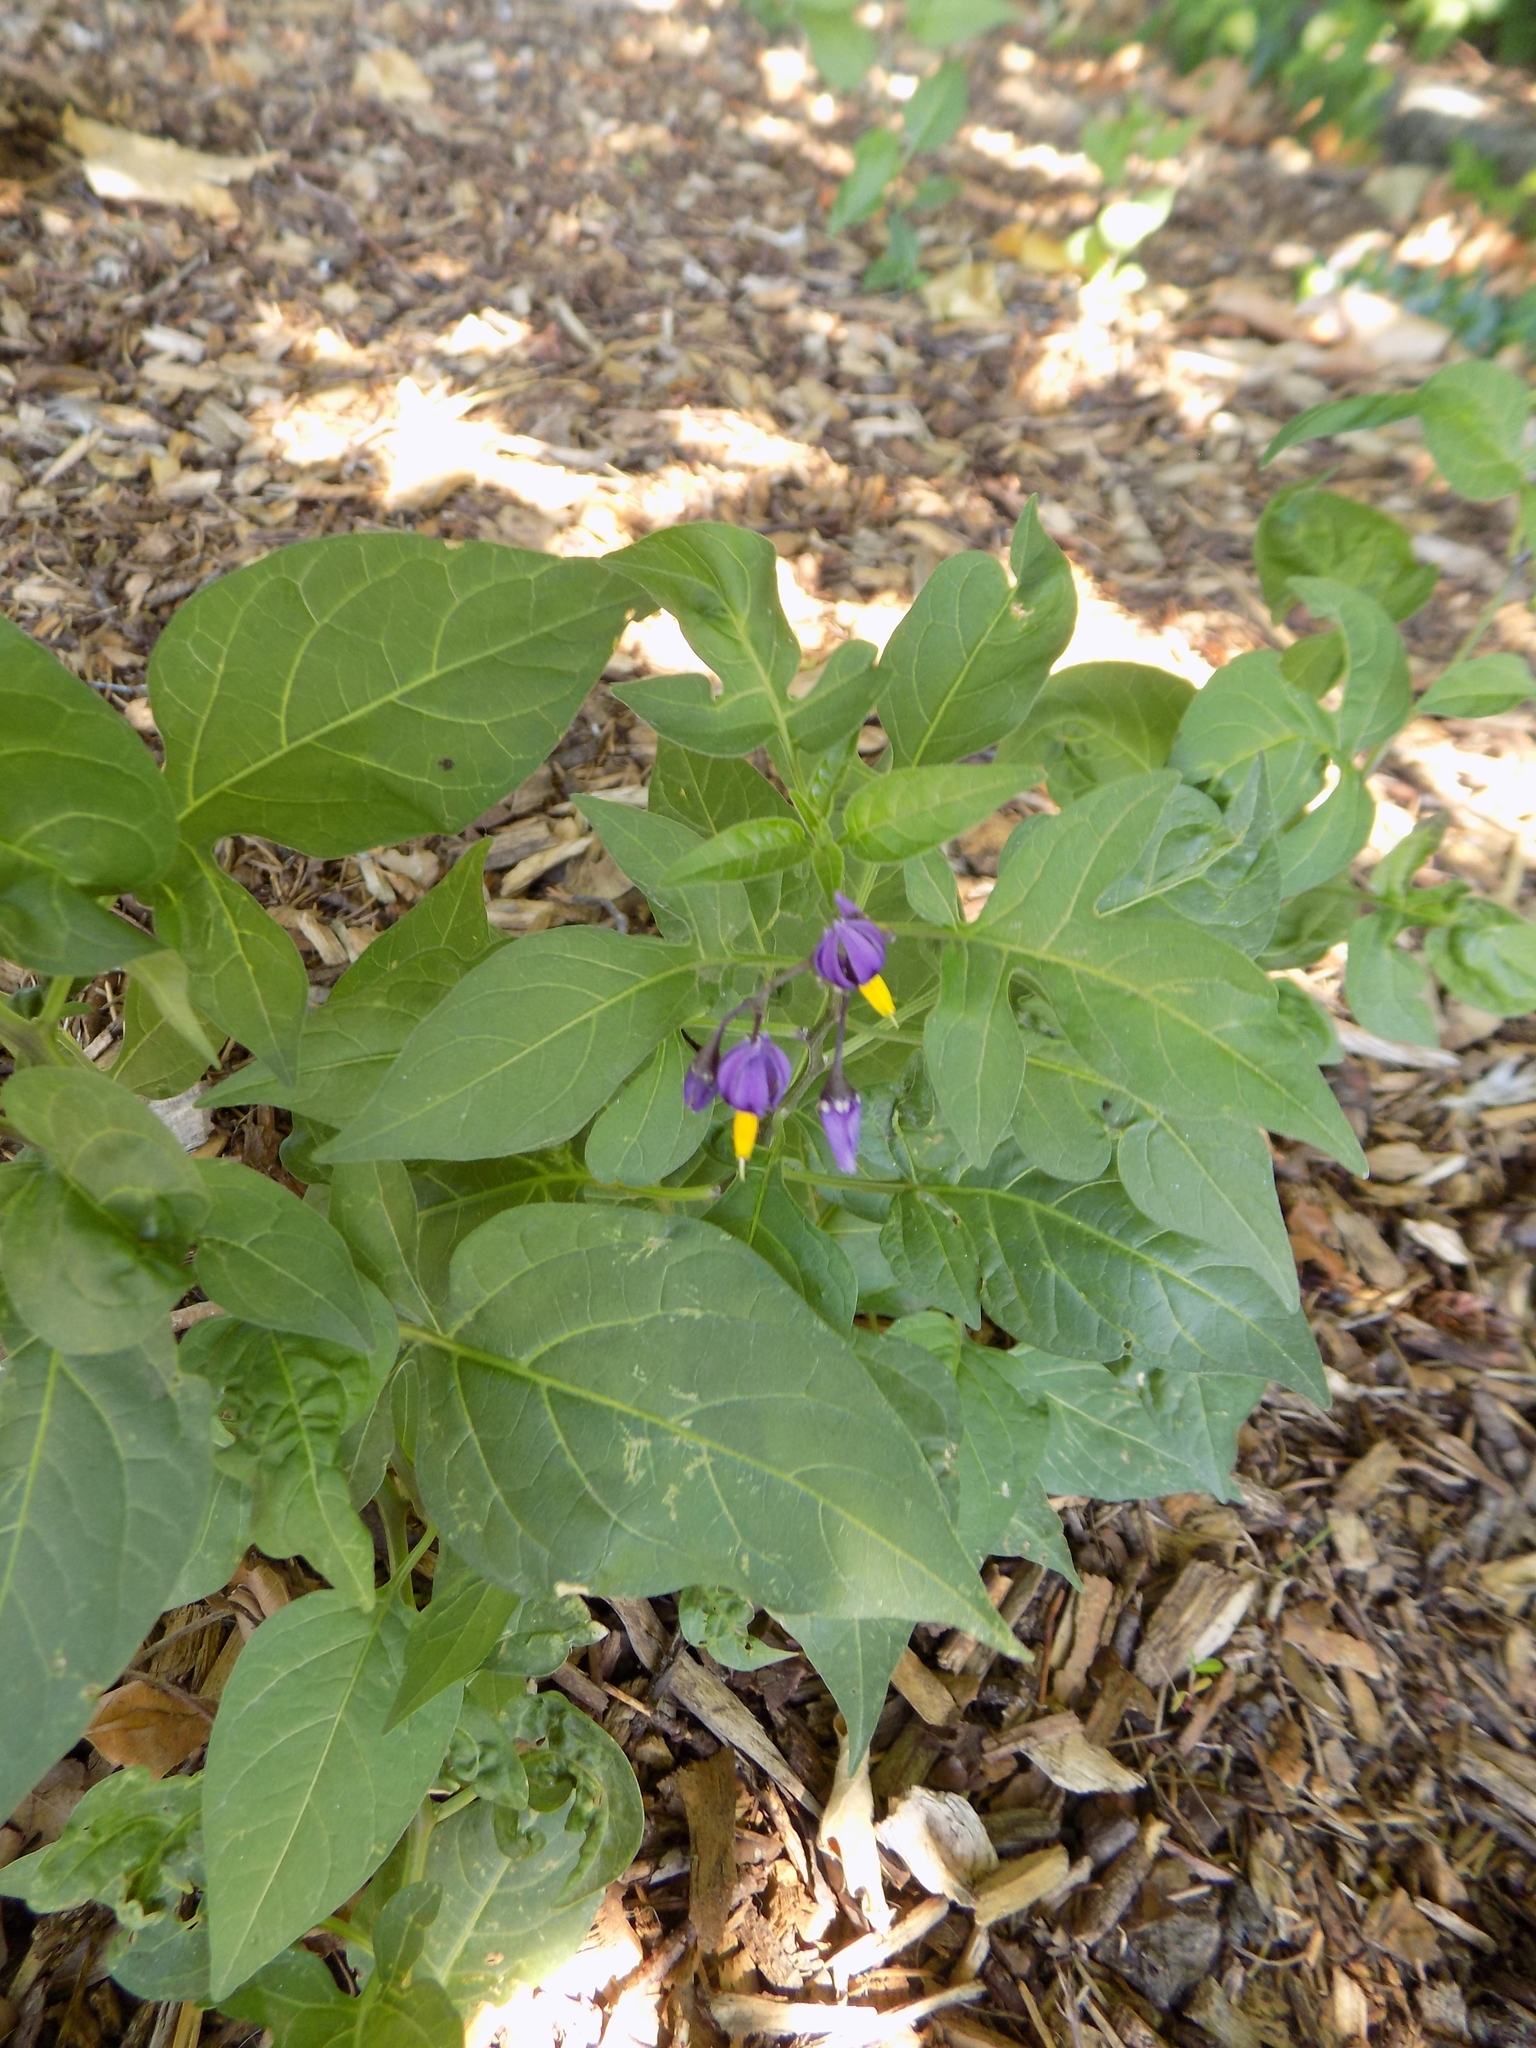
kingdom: Plantae
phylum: Tracheophyta
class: Magnoliopsida
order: Solanales
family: Solanaceae
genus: Solanum
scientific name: Solanum dulcamara
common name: Climbing nightshade
